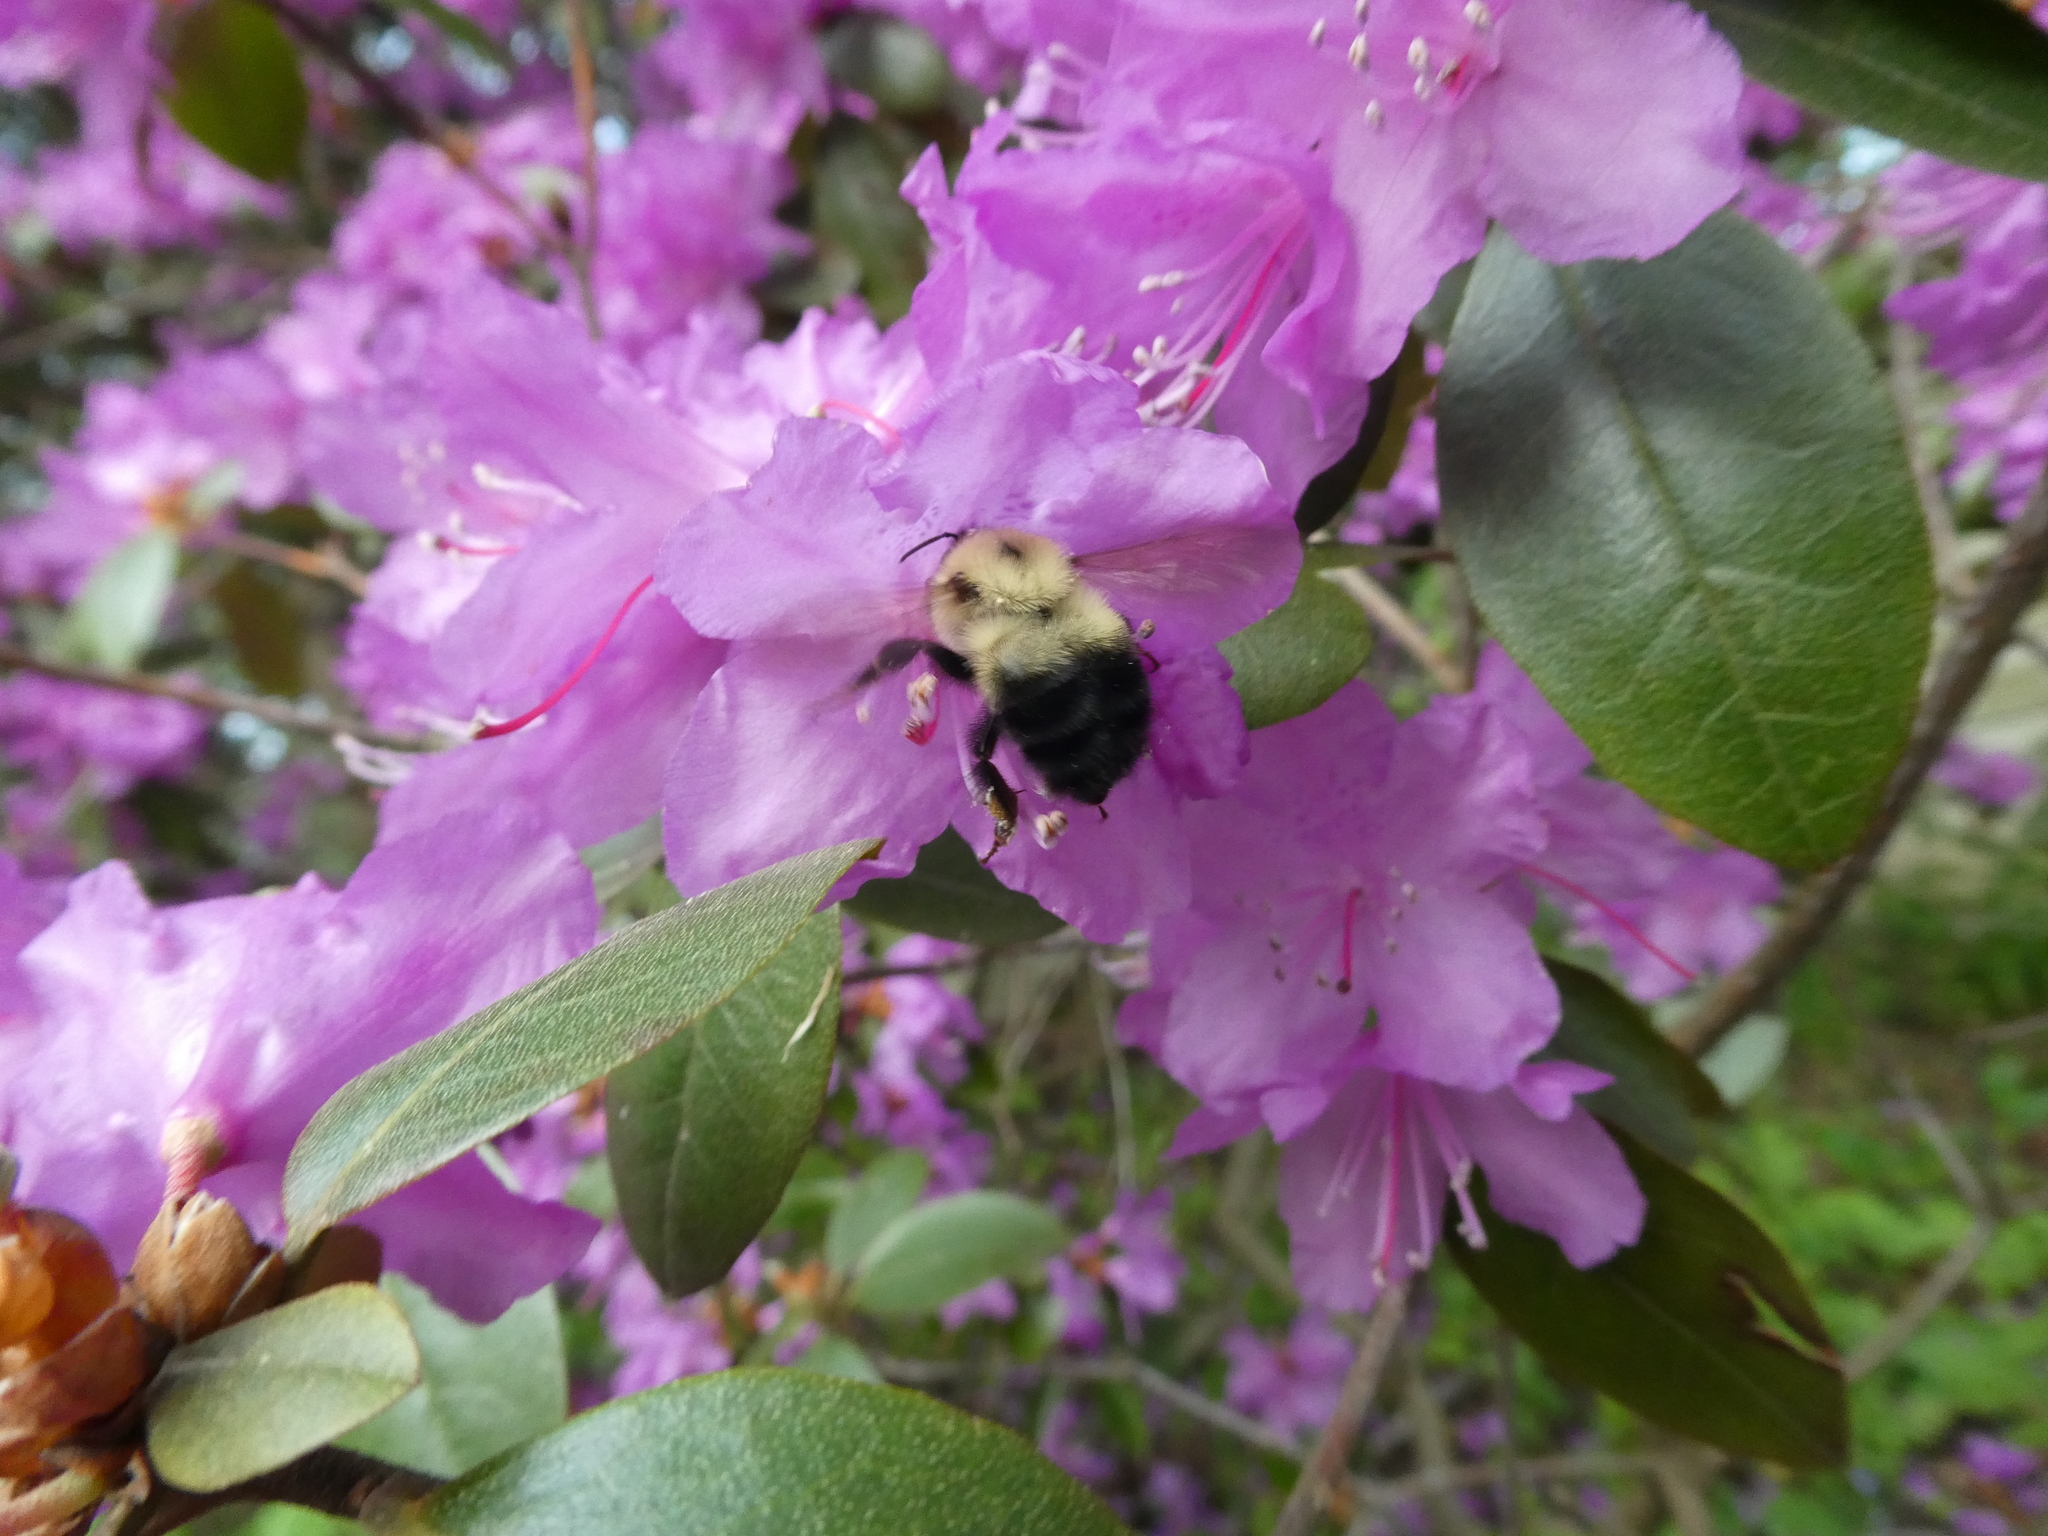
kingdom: Animalia
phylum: Arthropoda
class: Insecta
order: Hymenoptera
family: Apidae
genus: Pyrobombus
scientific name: Pyrobombus
